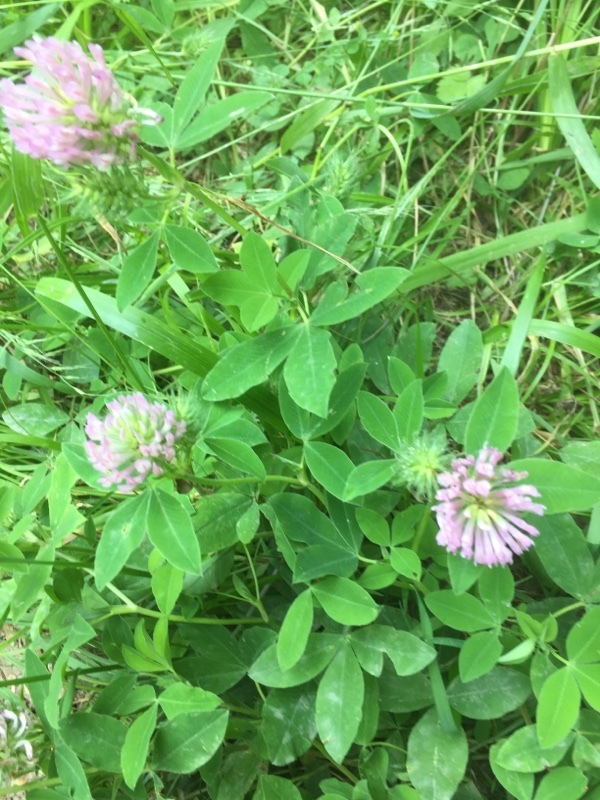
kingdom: Plantae
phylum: Tracheophyta
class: Magnoliopsida
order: Fabales
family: Fabaceae
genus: Trifolium
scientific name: Trifolium medium
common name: Zigzag clover
